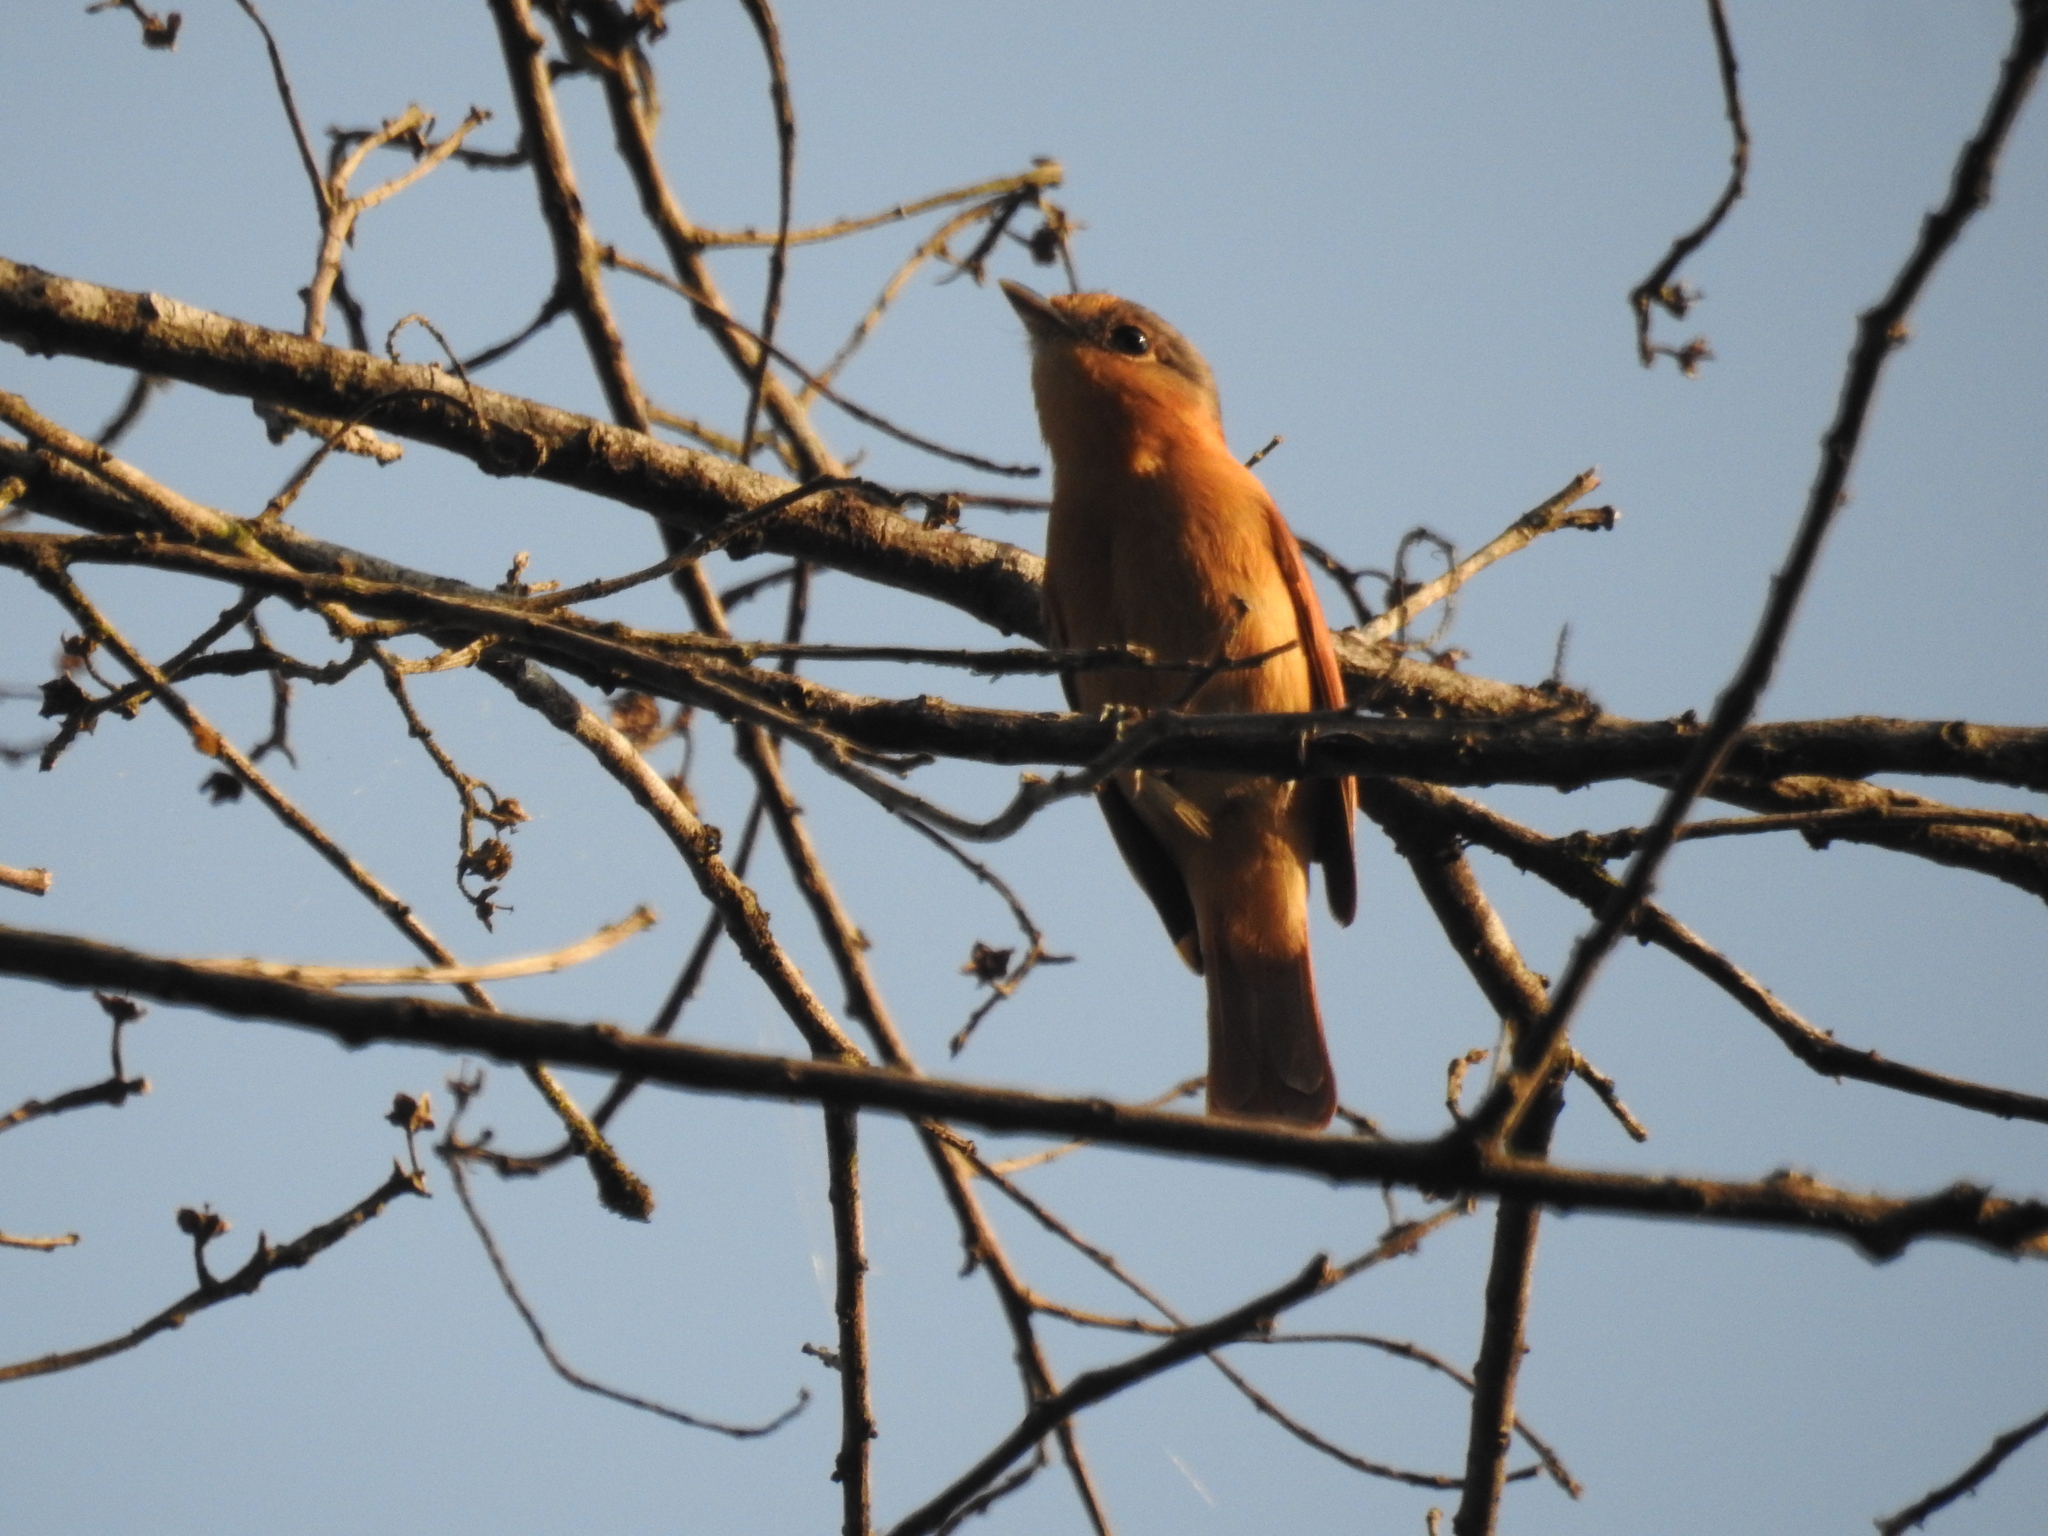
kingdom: Animalia
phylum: Chordata
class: Aves
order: Passeriformes
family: Cotingidae
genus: Pachyramphus
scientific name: Pachyramphus castaneus
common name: Chestnut-crowned becard
